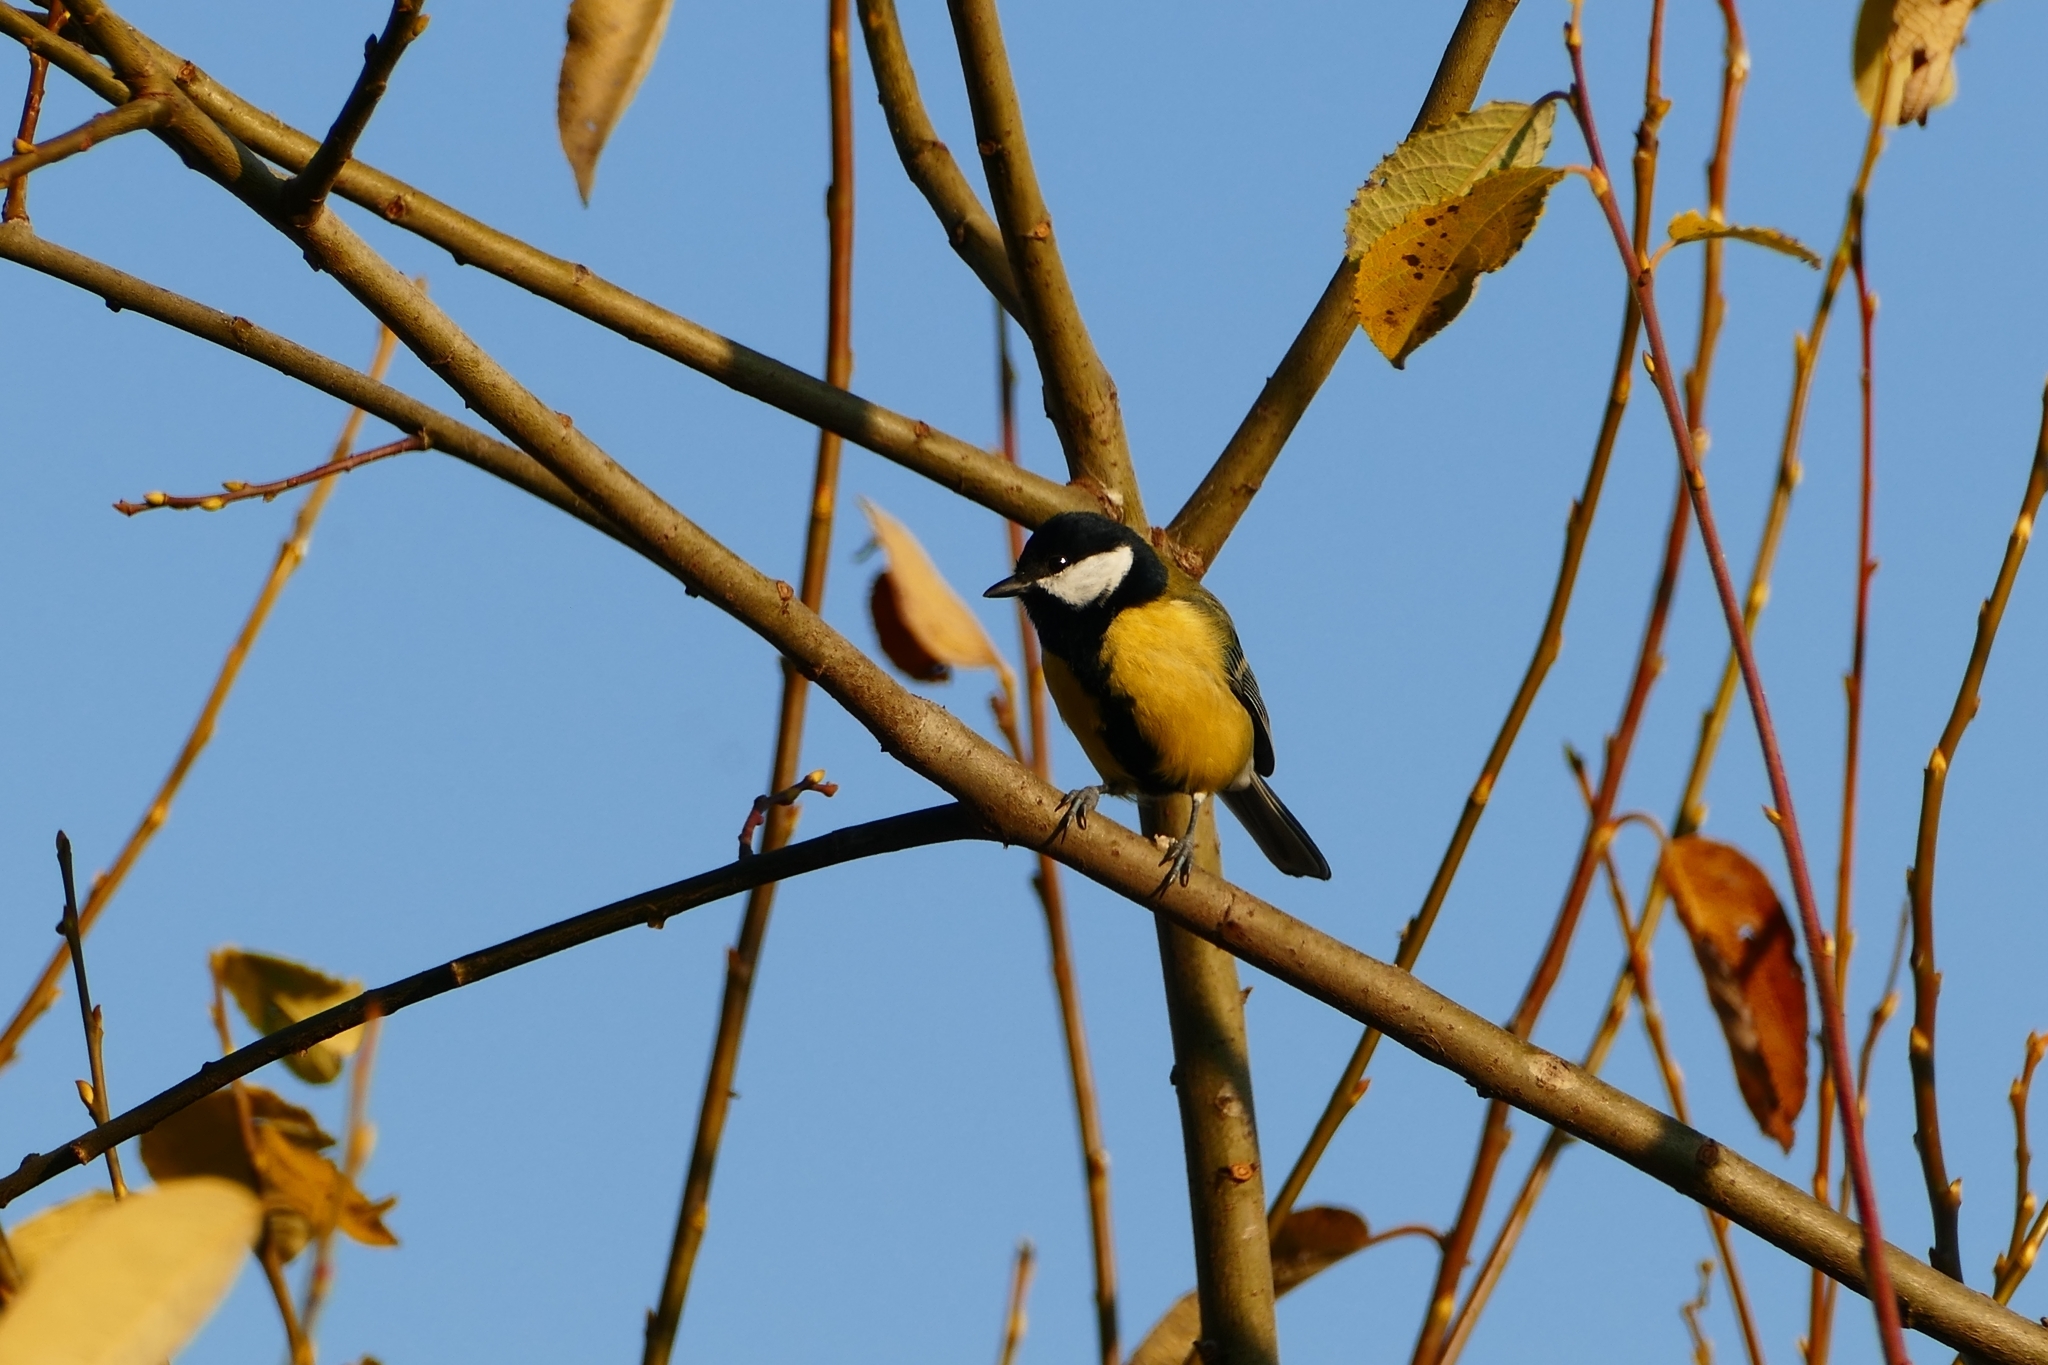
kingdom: Animalia
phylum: Chordata
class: Aves
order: Passeriformes
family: Paridae
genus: Parus
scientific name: Parus major
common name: Great tit
